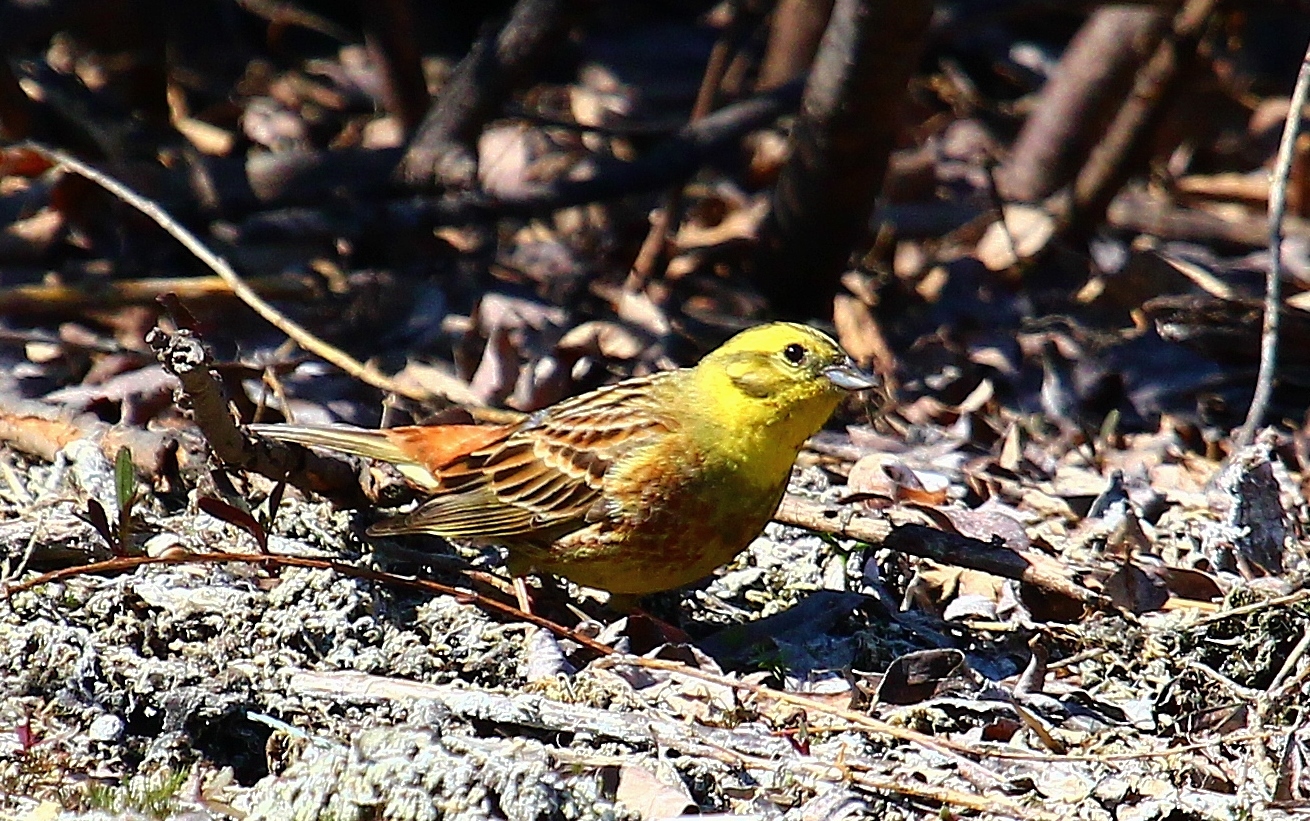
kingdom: Animalia
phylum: Chordata
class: Aves
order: Passeriformes
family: Emberizidae
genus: Emberiza
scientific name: Emberiza citrinella
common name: Yellowhammer
